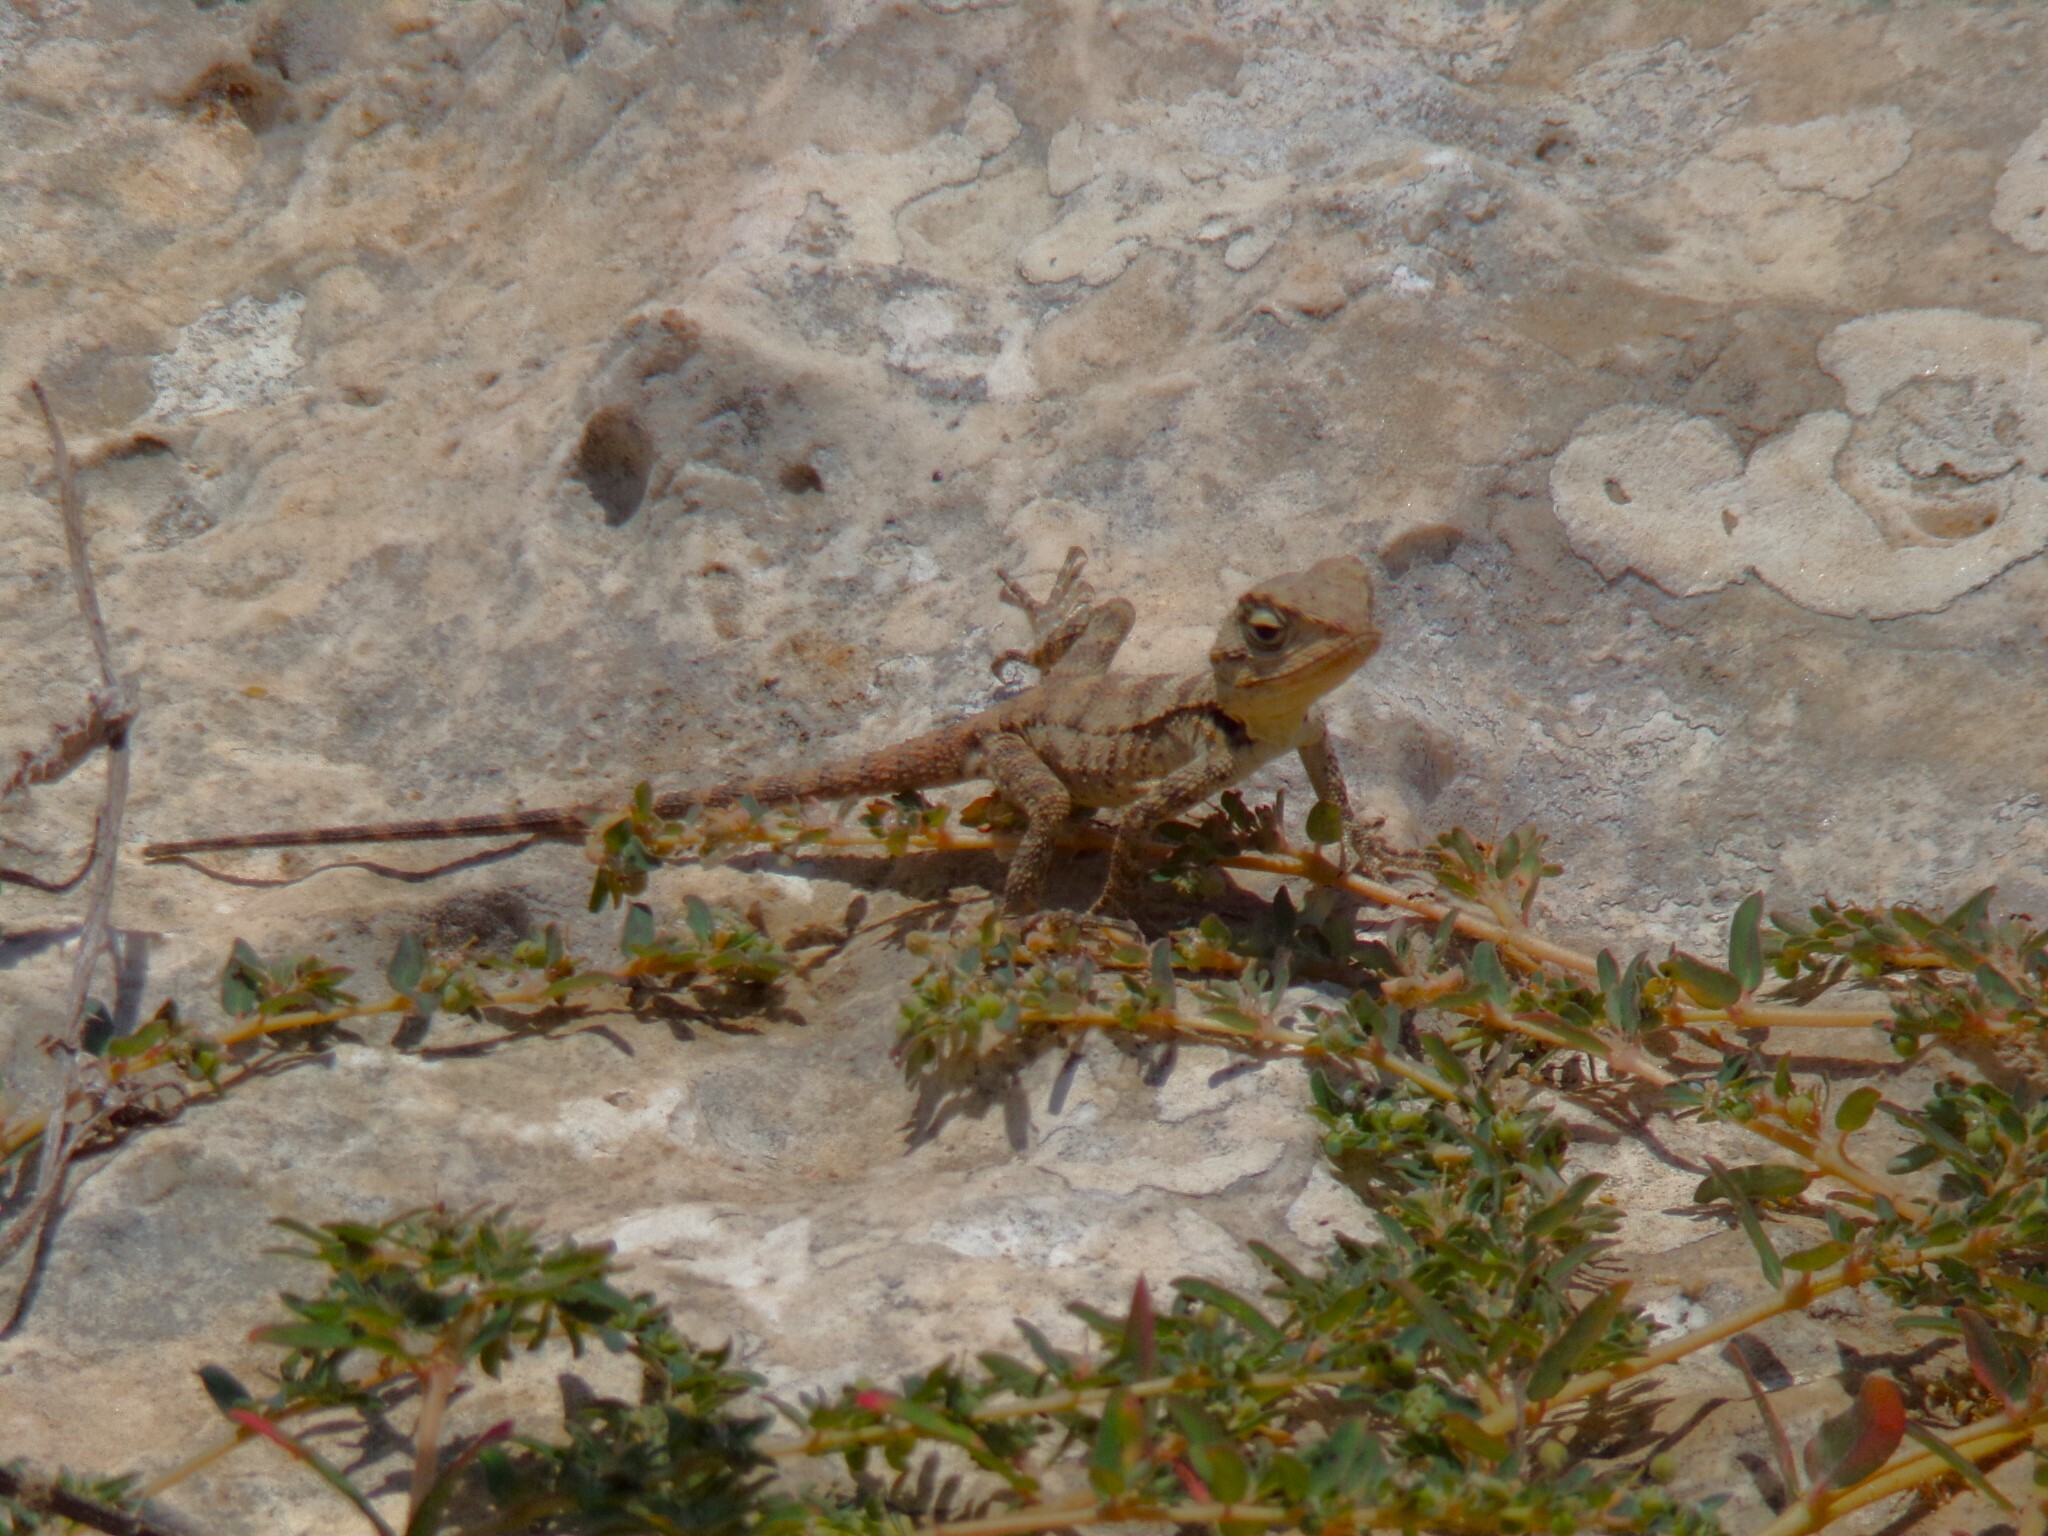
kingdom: Animalia
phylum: Chordata
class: Squamata
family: Agamidae
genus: Laudakia
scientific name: Laudakia
